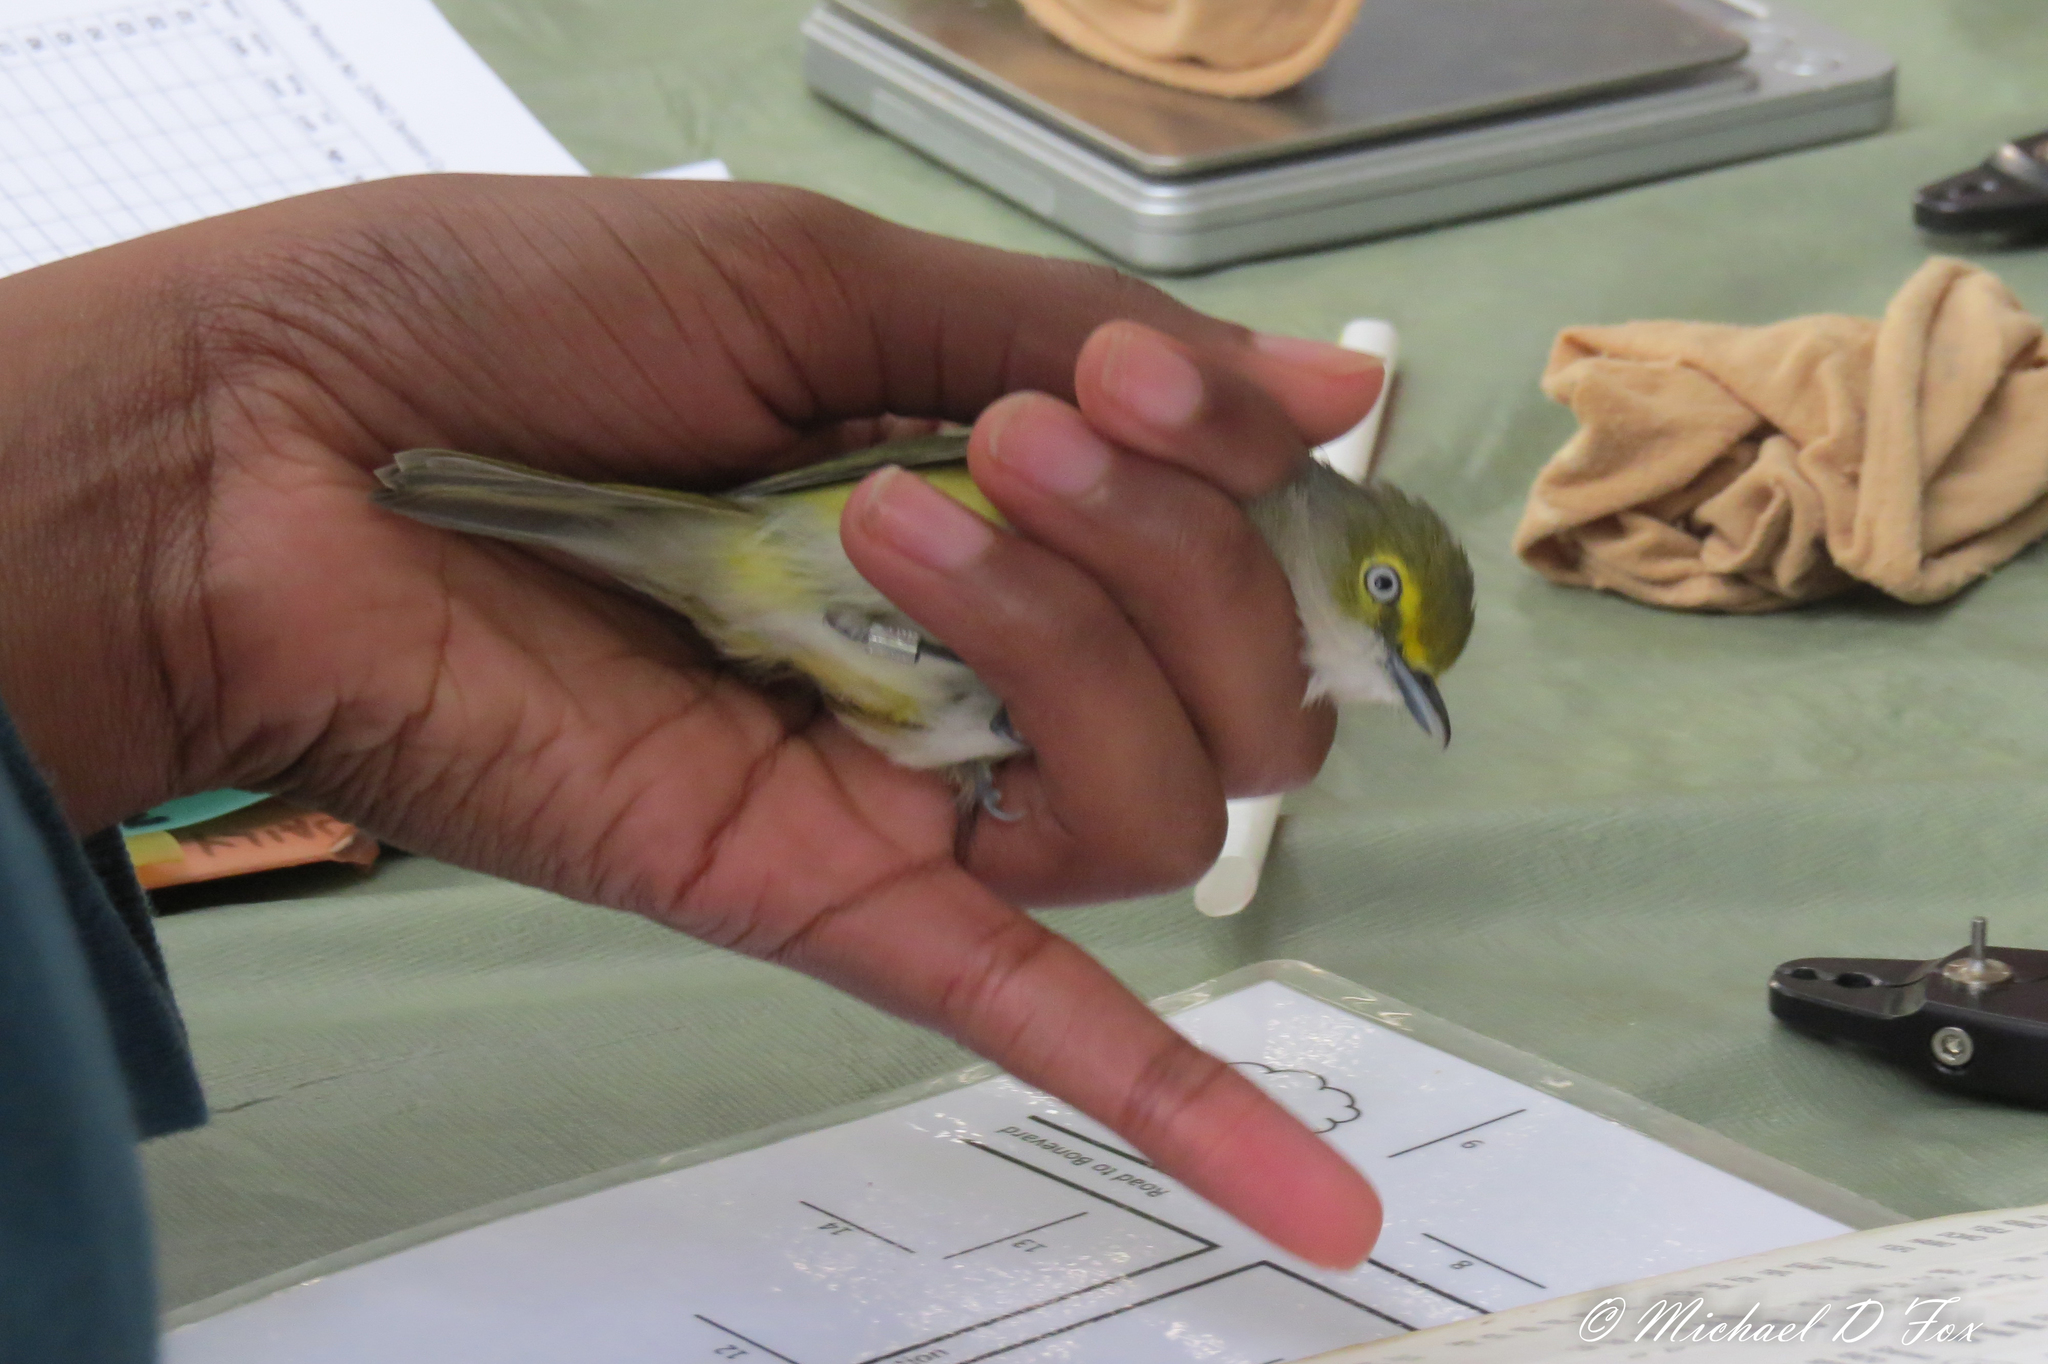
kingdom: Animalia
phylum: Chordata
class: Aves
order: Passeriformes
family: Vireonidae
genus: Vireo
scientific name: Vireo griseus
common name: White-eyed vireo
